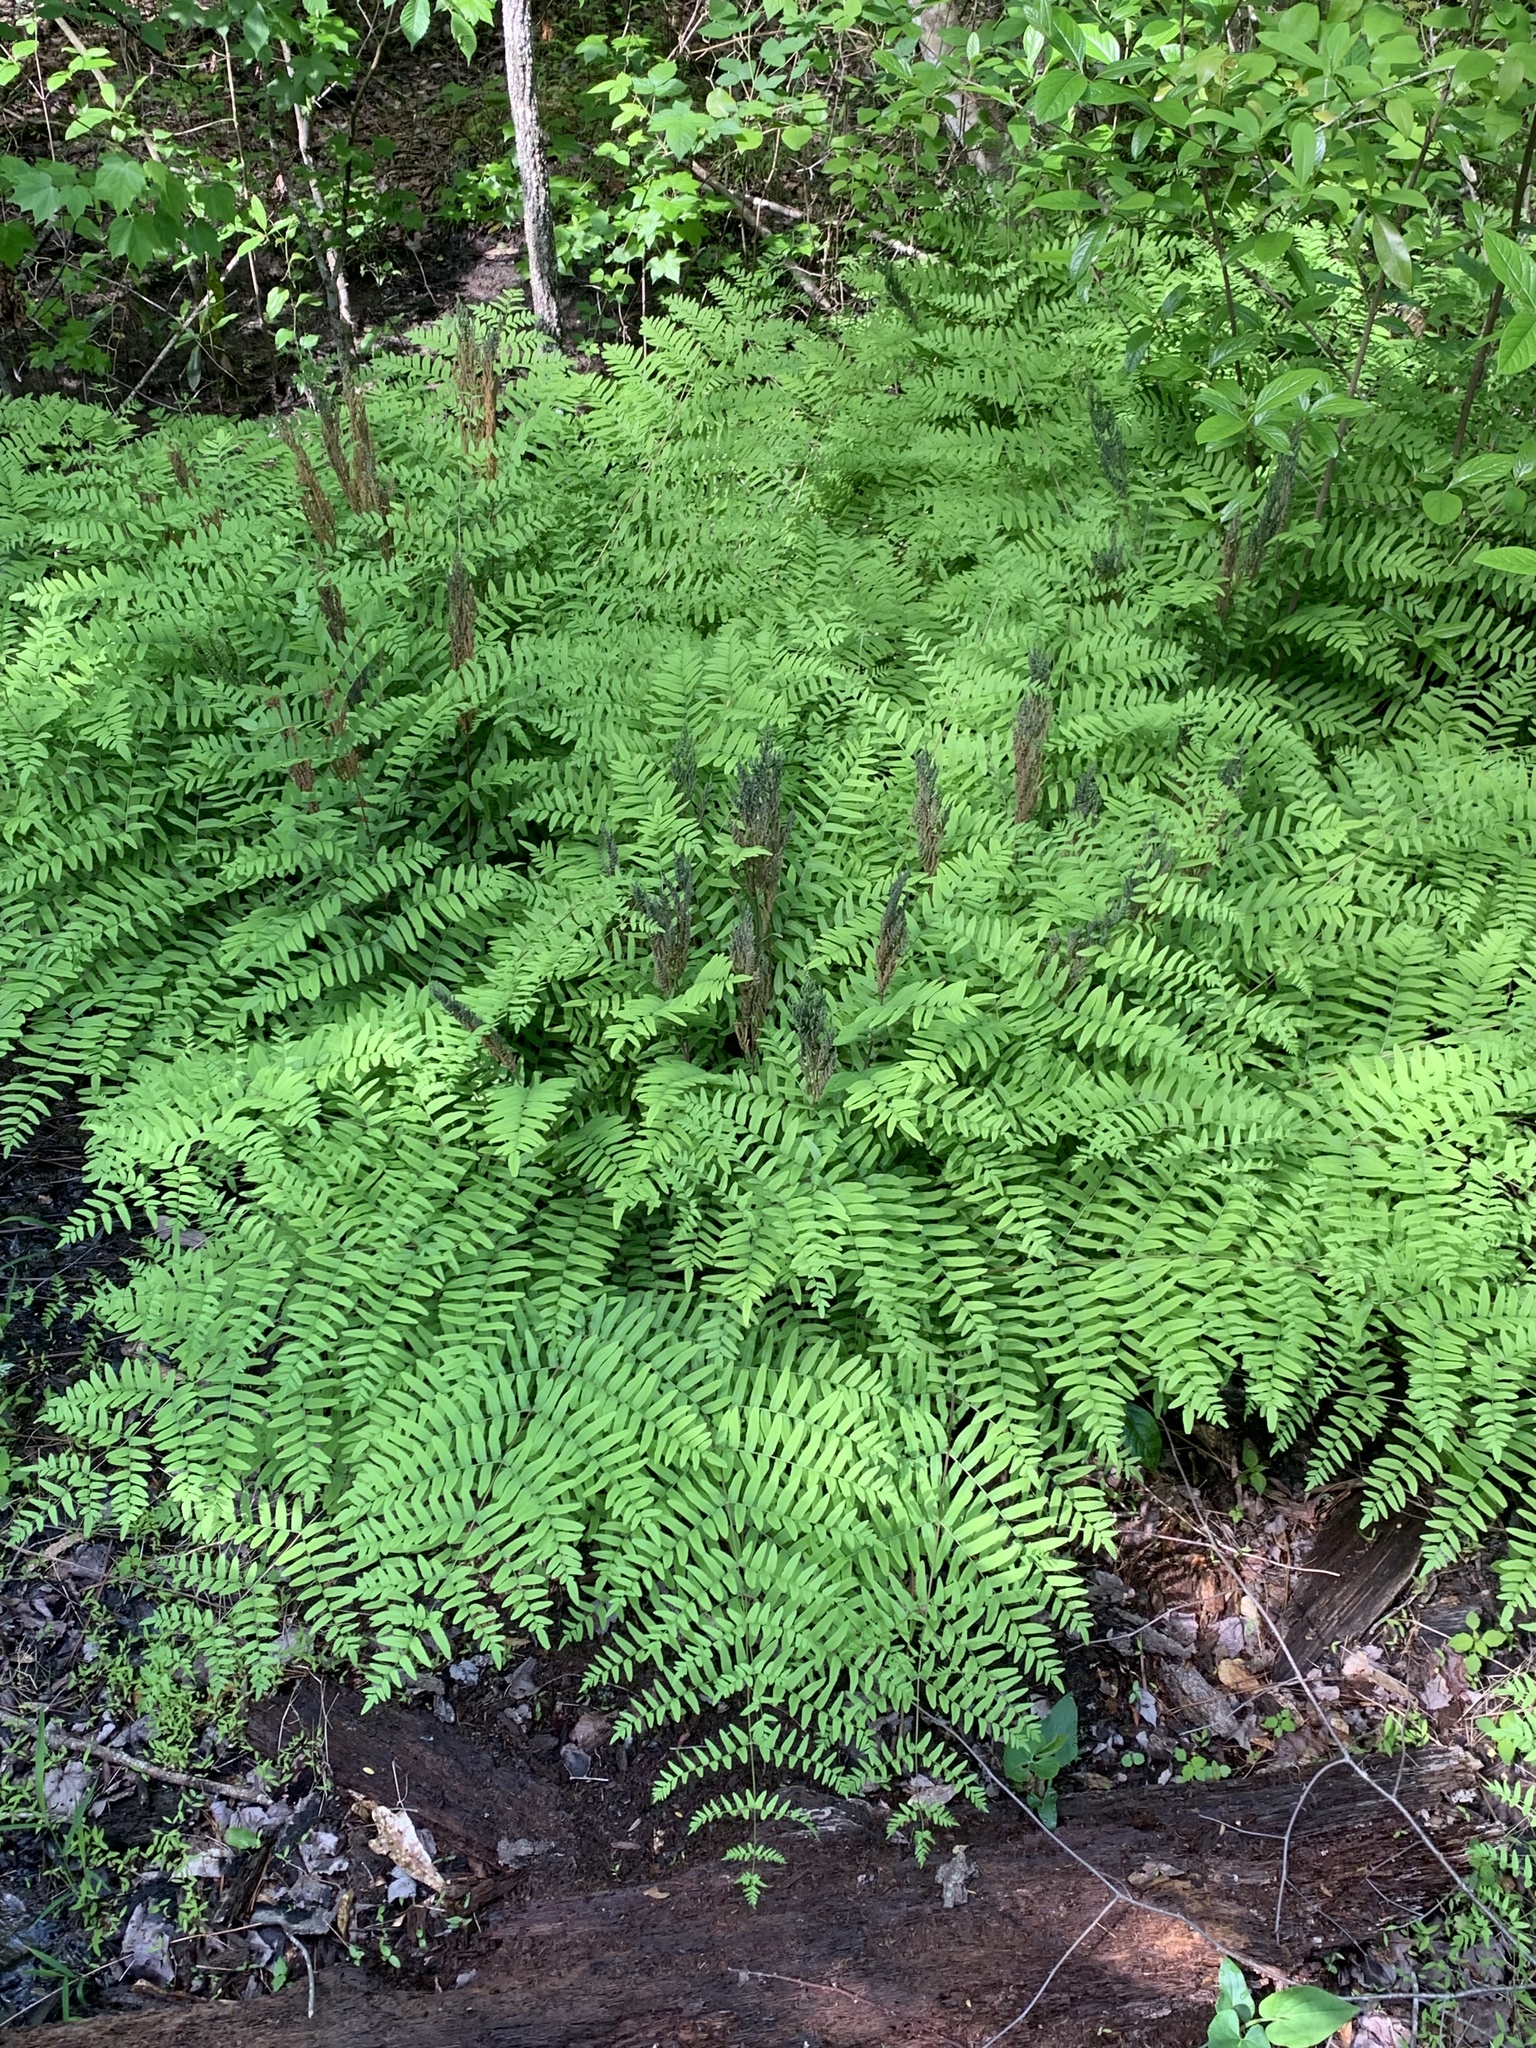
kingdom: Plantae
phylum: Tracheophyta
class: Polypodiopsida
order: Osmundales
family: Osmundaceae
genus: Osmunda
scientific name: Osmunda spectabilis
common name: American royal fern
